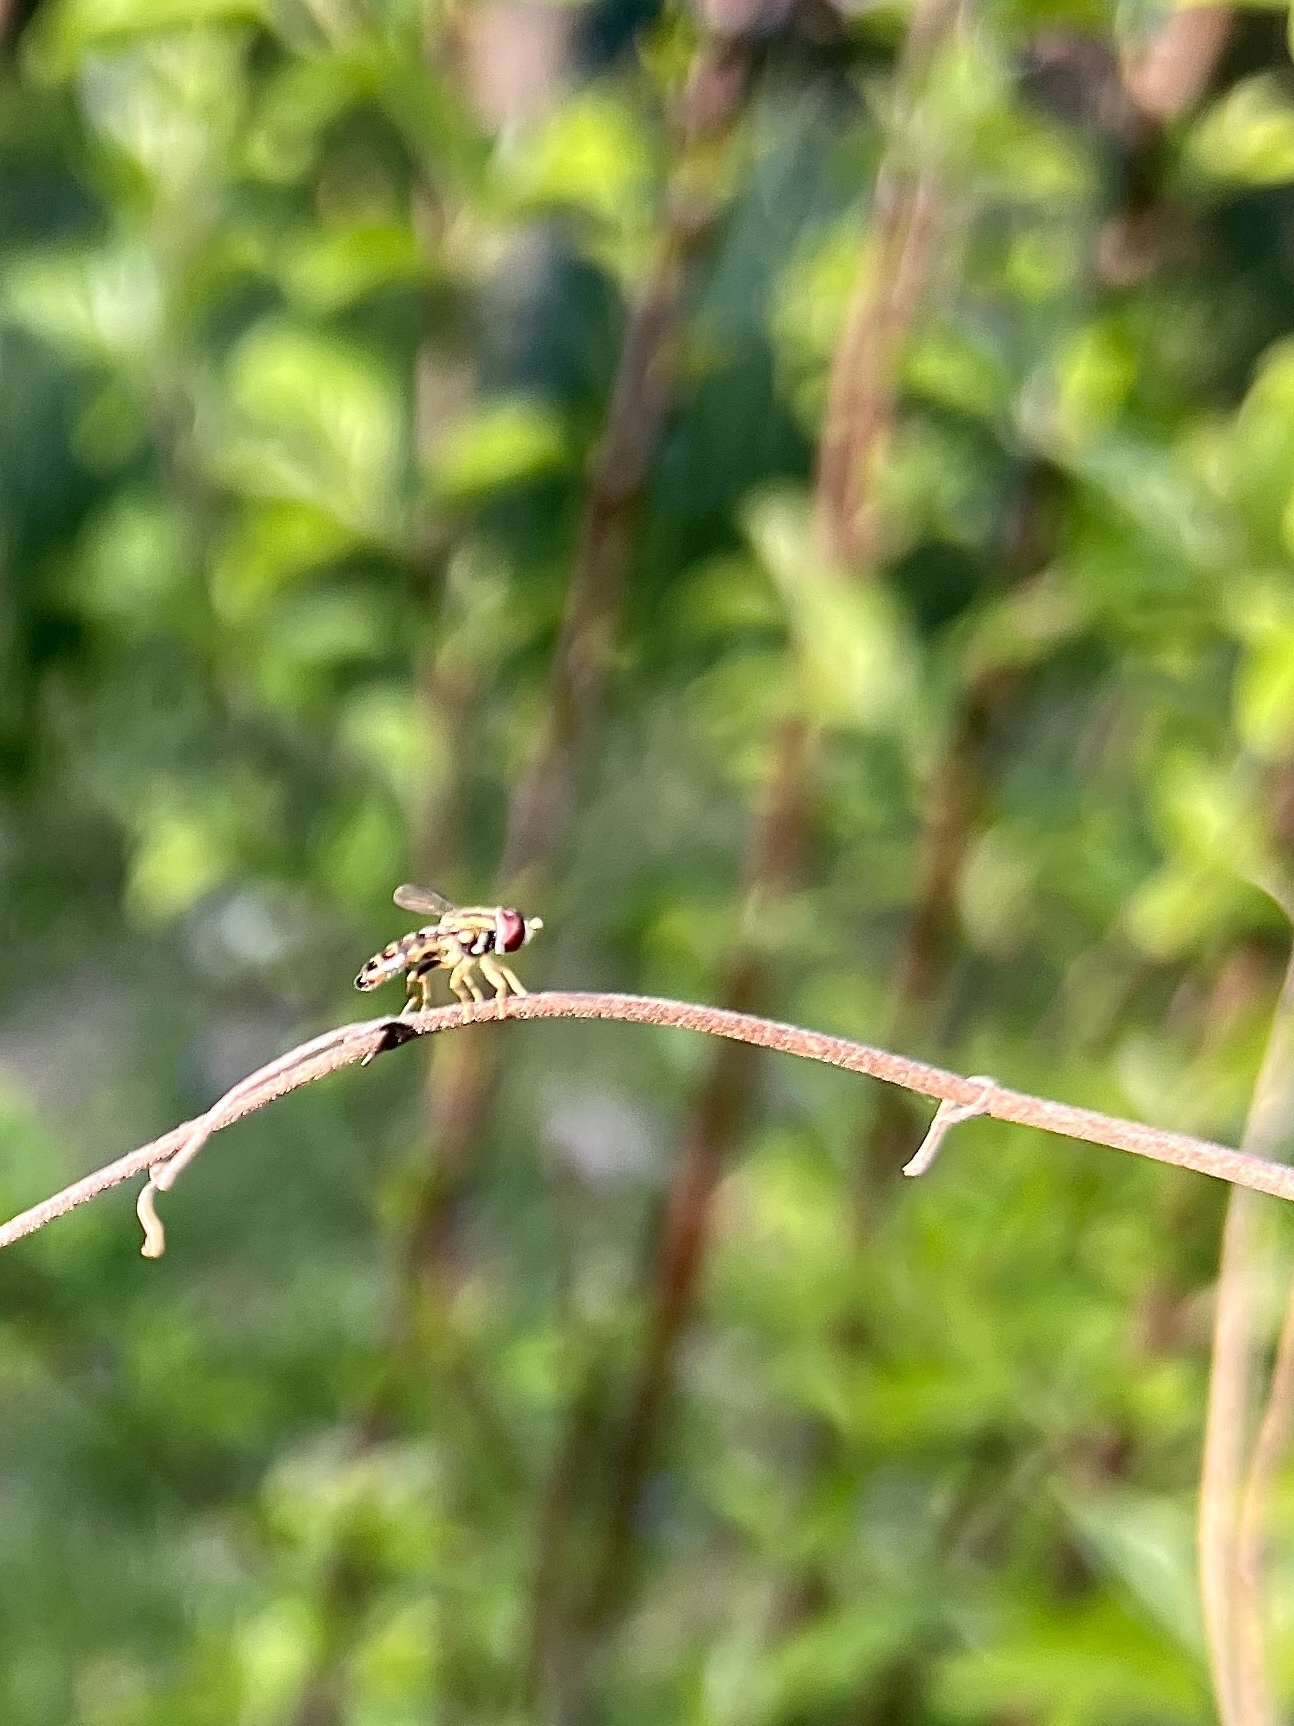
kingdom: Animalia
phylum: Arthropoda
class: Insecta
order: Diptera
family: Syrphidae
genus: Toxomerus
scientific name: Toxomerus geminatus
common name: Eastern calligrapher
